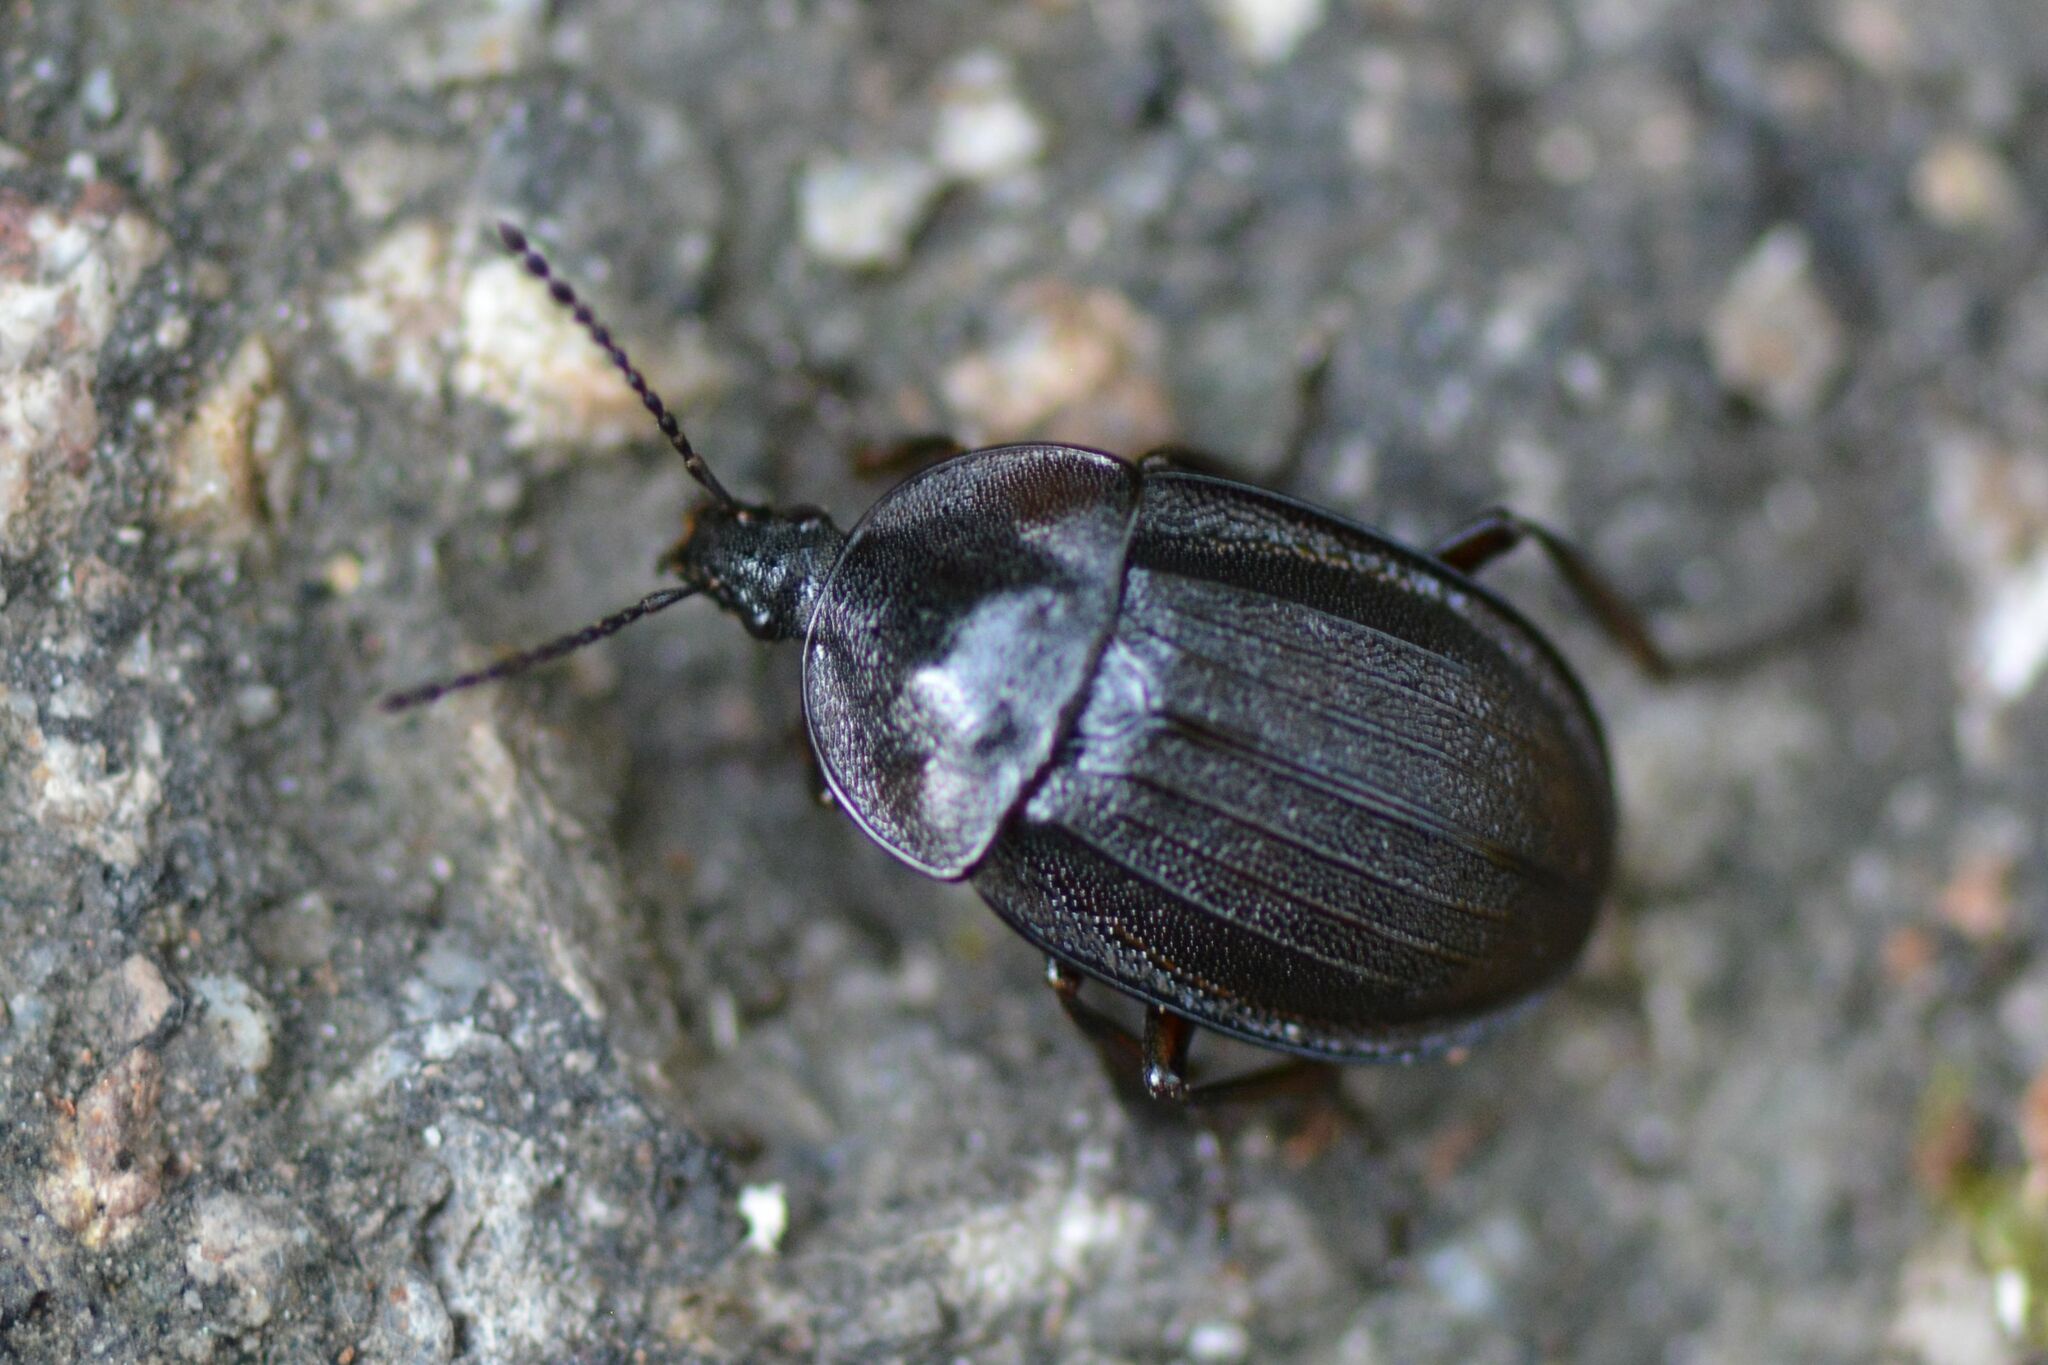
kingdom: Animalia
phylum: Arthropoda
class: Insecta
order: Coleoptera
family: Staphylinidae
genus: Silpha
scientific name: Silpha atrata
